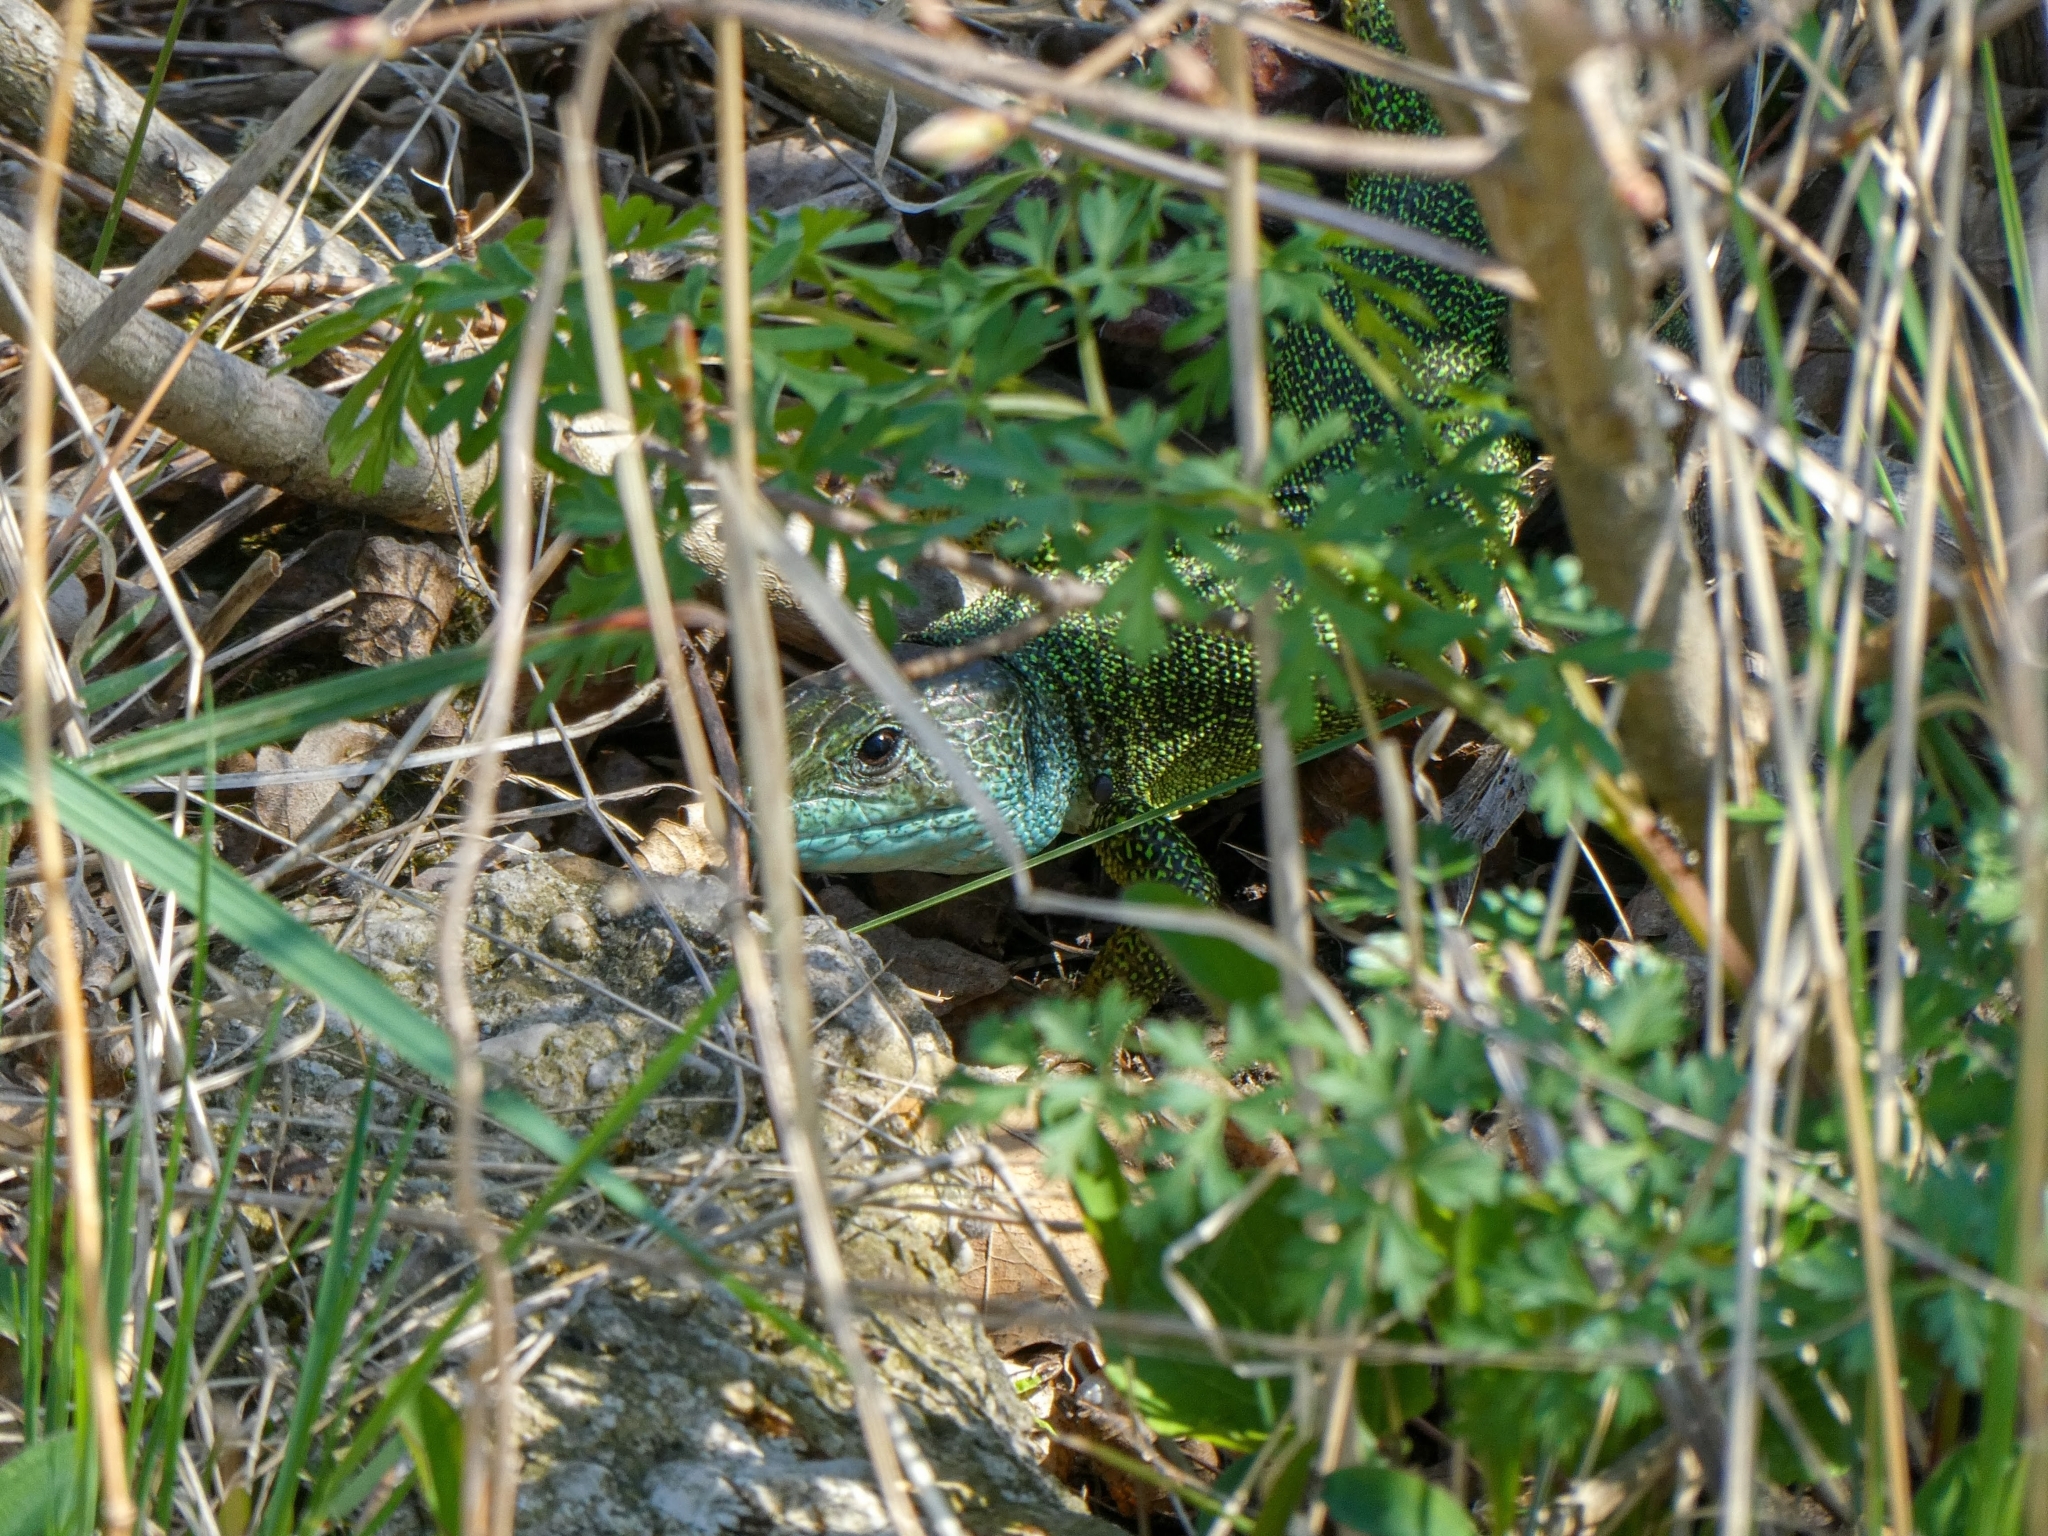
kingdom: Animalia
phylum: Chordata
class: Squamata
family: Lacertidae
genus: Lacerta
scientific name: Lacerta viridis
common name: European green lizard
